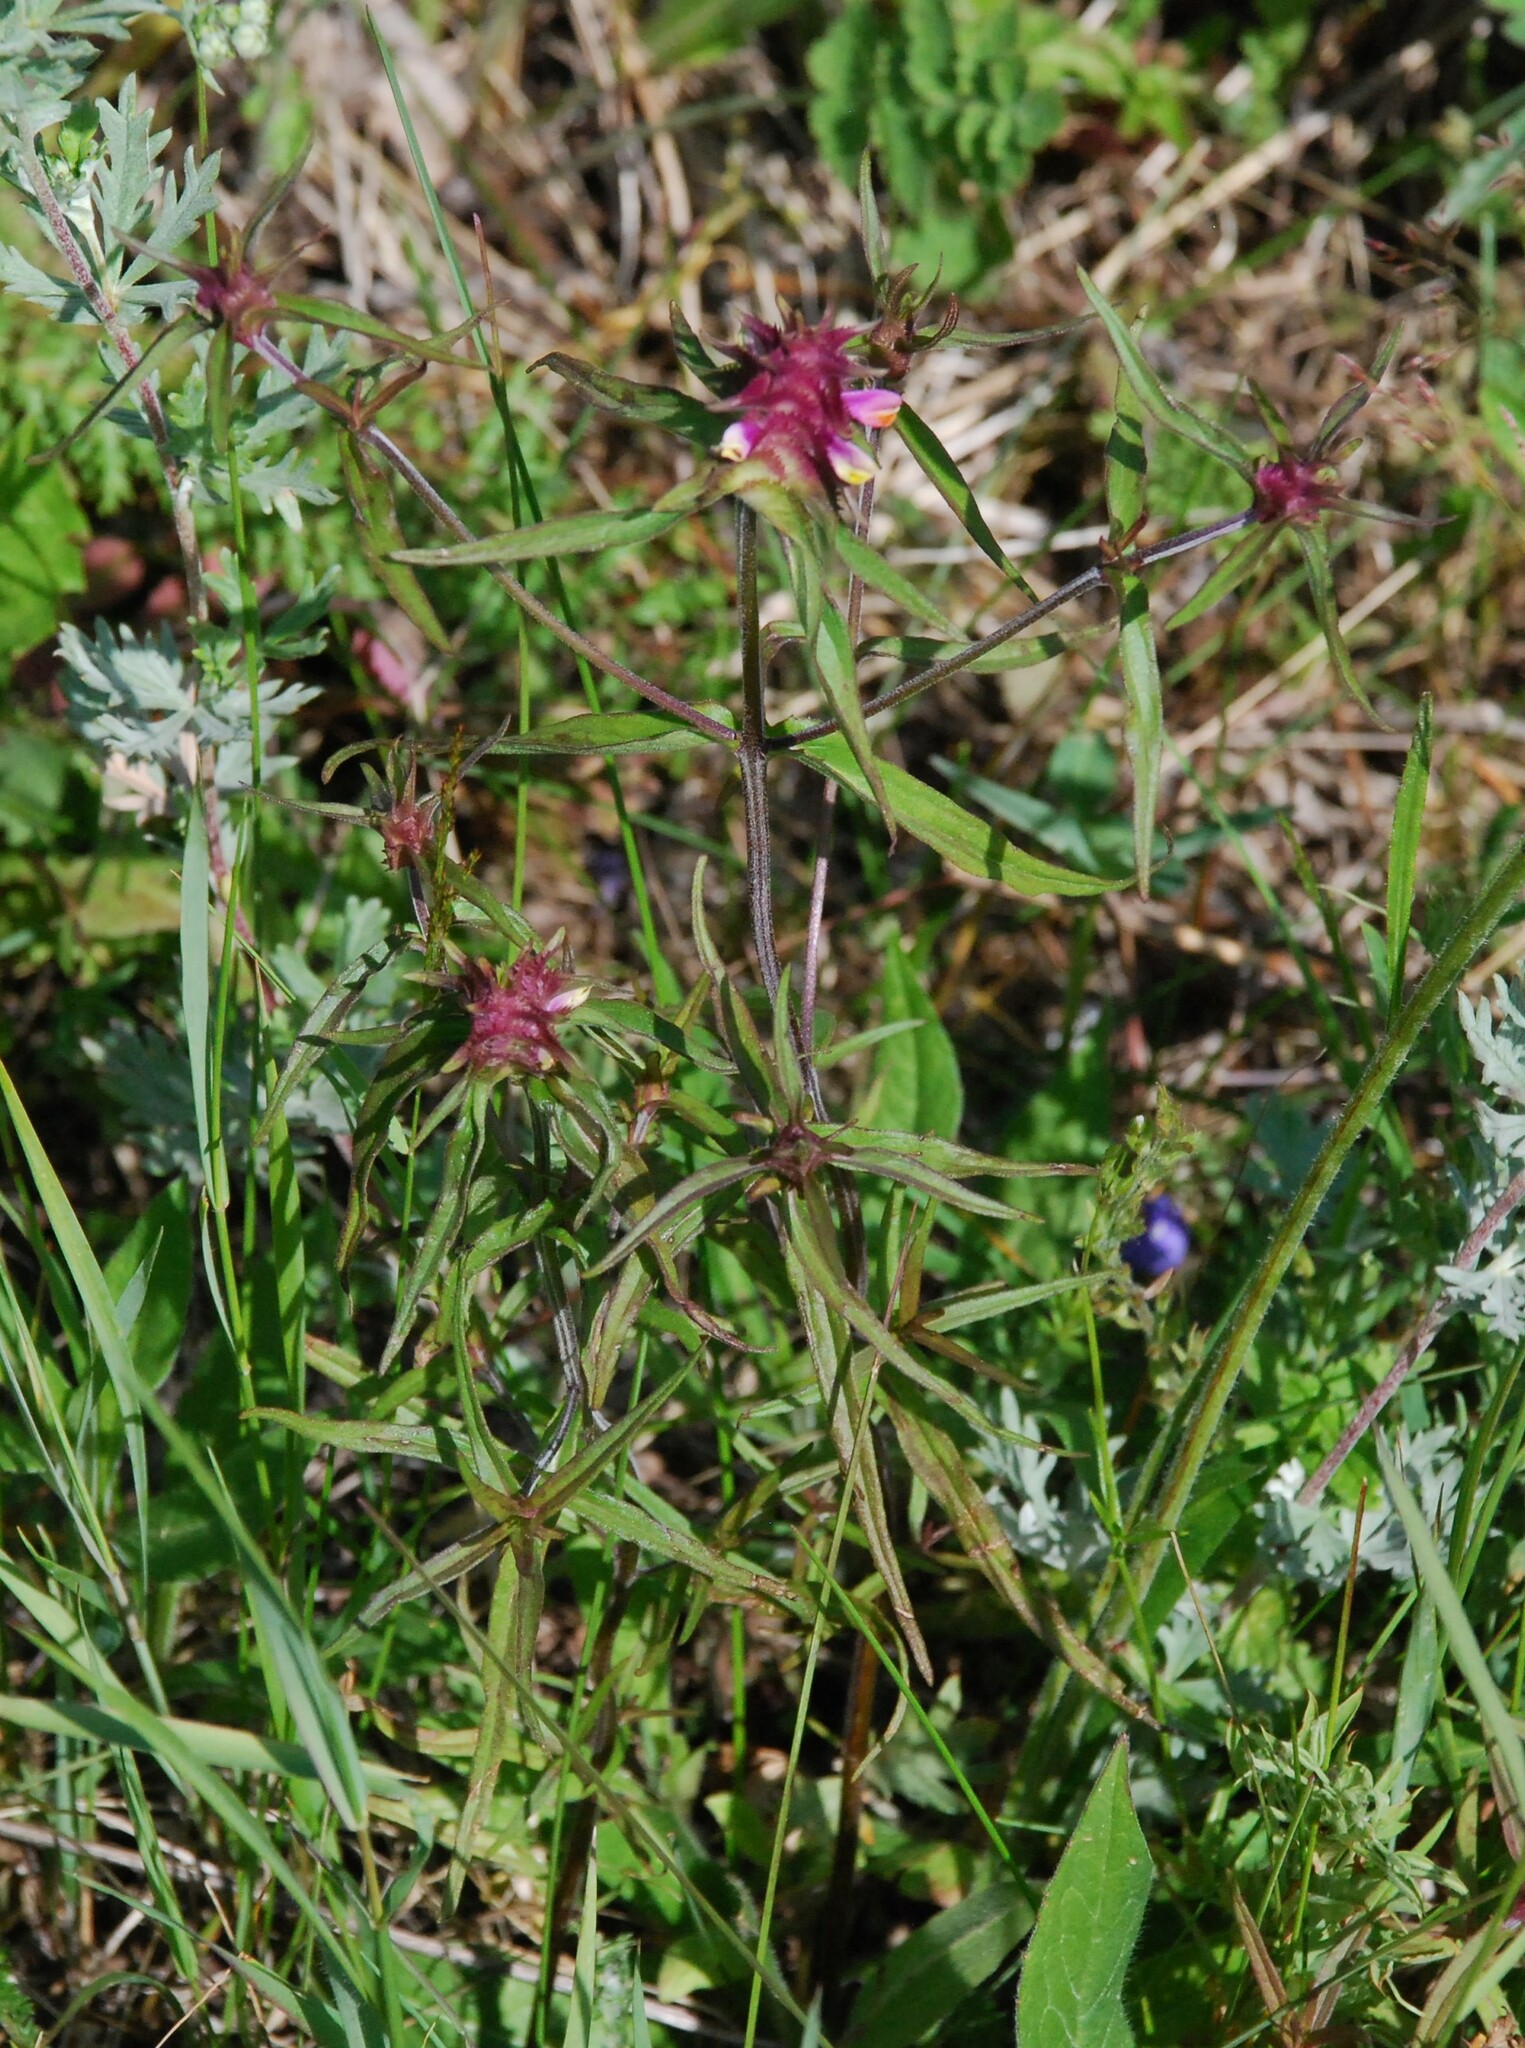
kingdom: Plantae
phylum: Tracheophyta
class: Magnoliopsida
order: Lamiales
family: Orobanchaceae
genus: Melampyrum
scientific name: Melampyrum cristatum
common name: Crested cow-wheat
